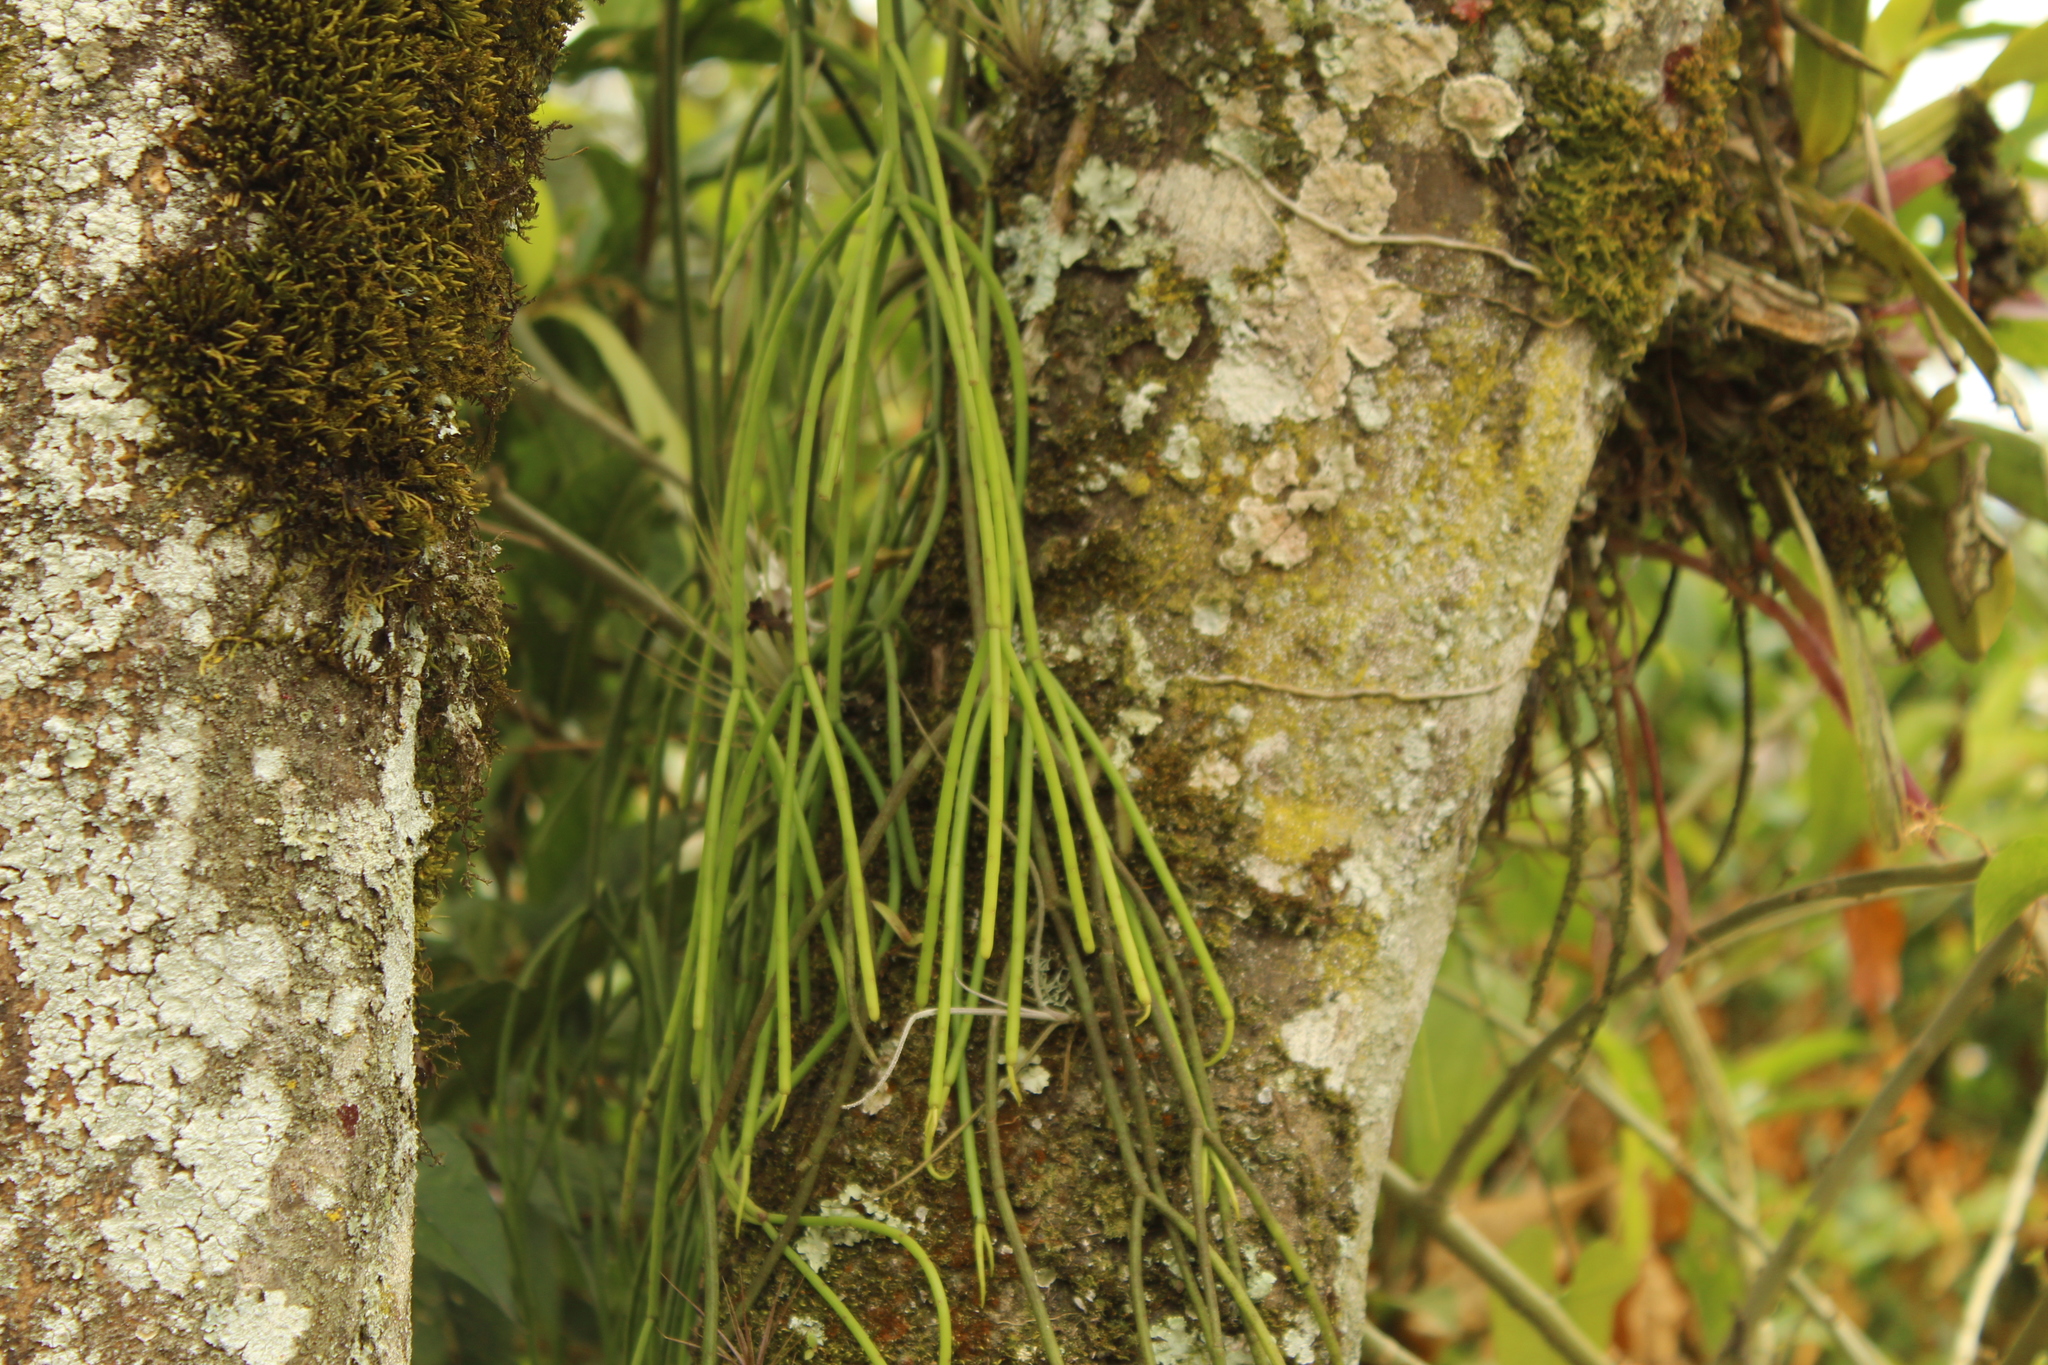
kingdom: Plantae
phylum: Tracheophyta
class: Magnoliopsida
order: Caryophyllales
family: Cactaceae
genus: Rhipsalis
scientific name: Rhipsalis baccifera
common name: Mistletoe cactus
